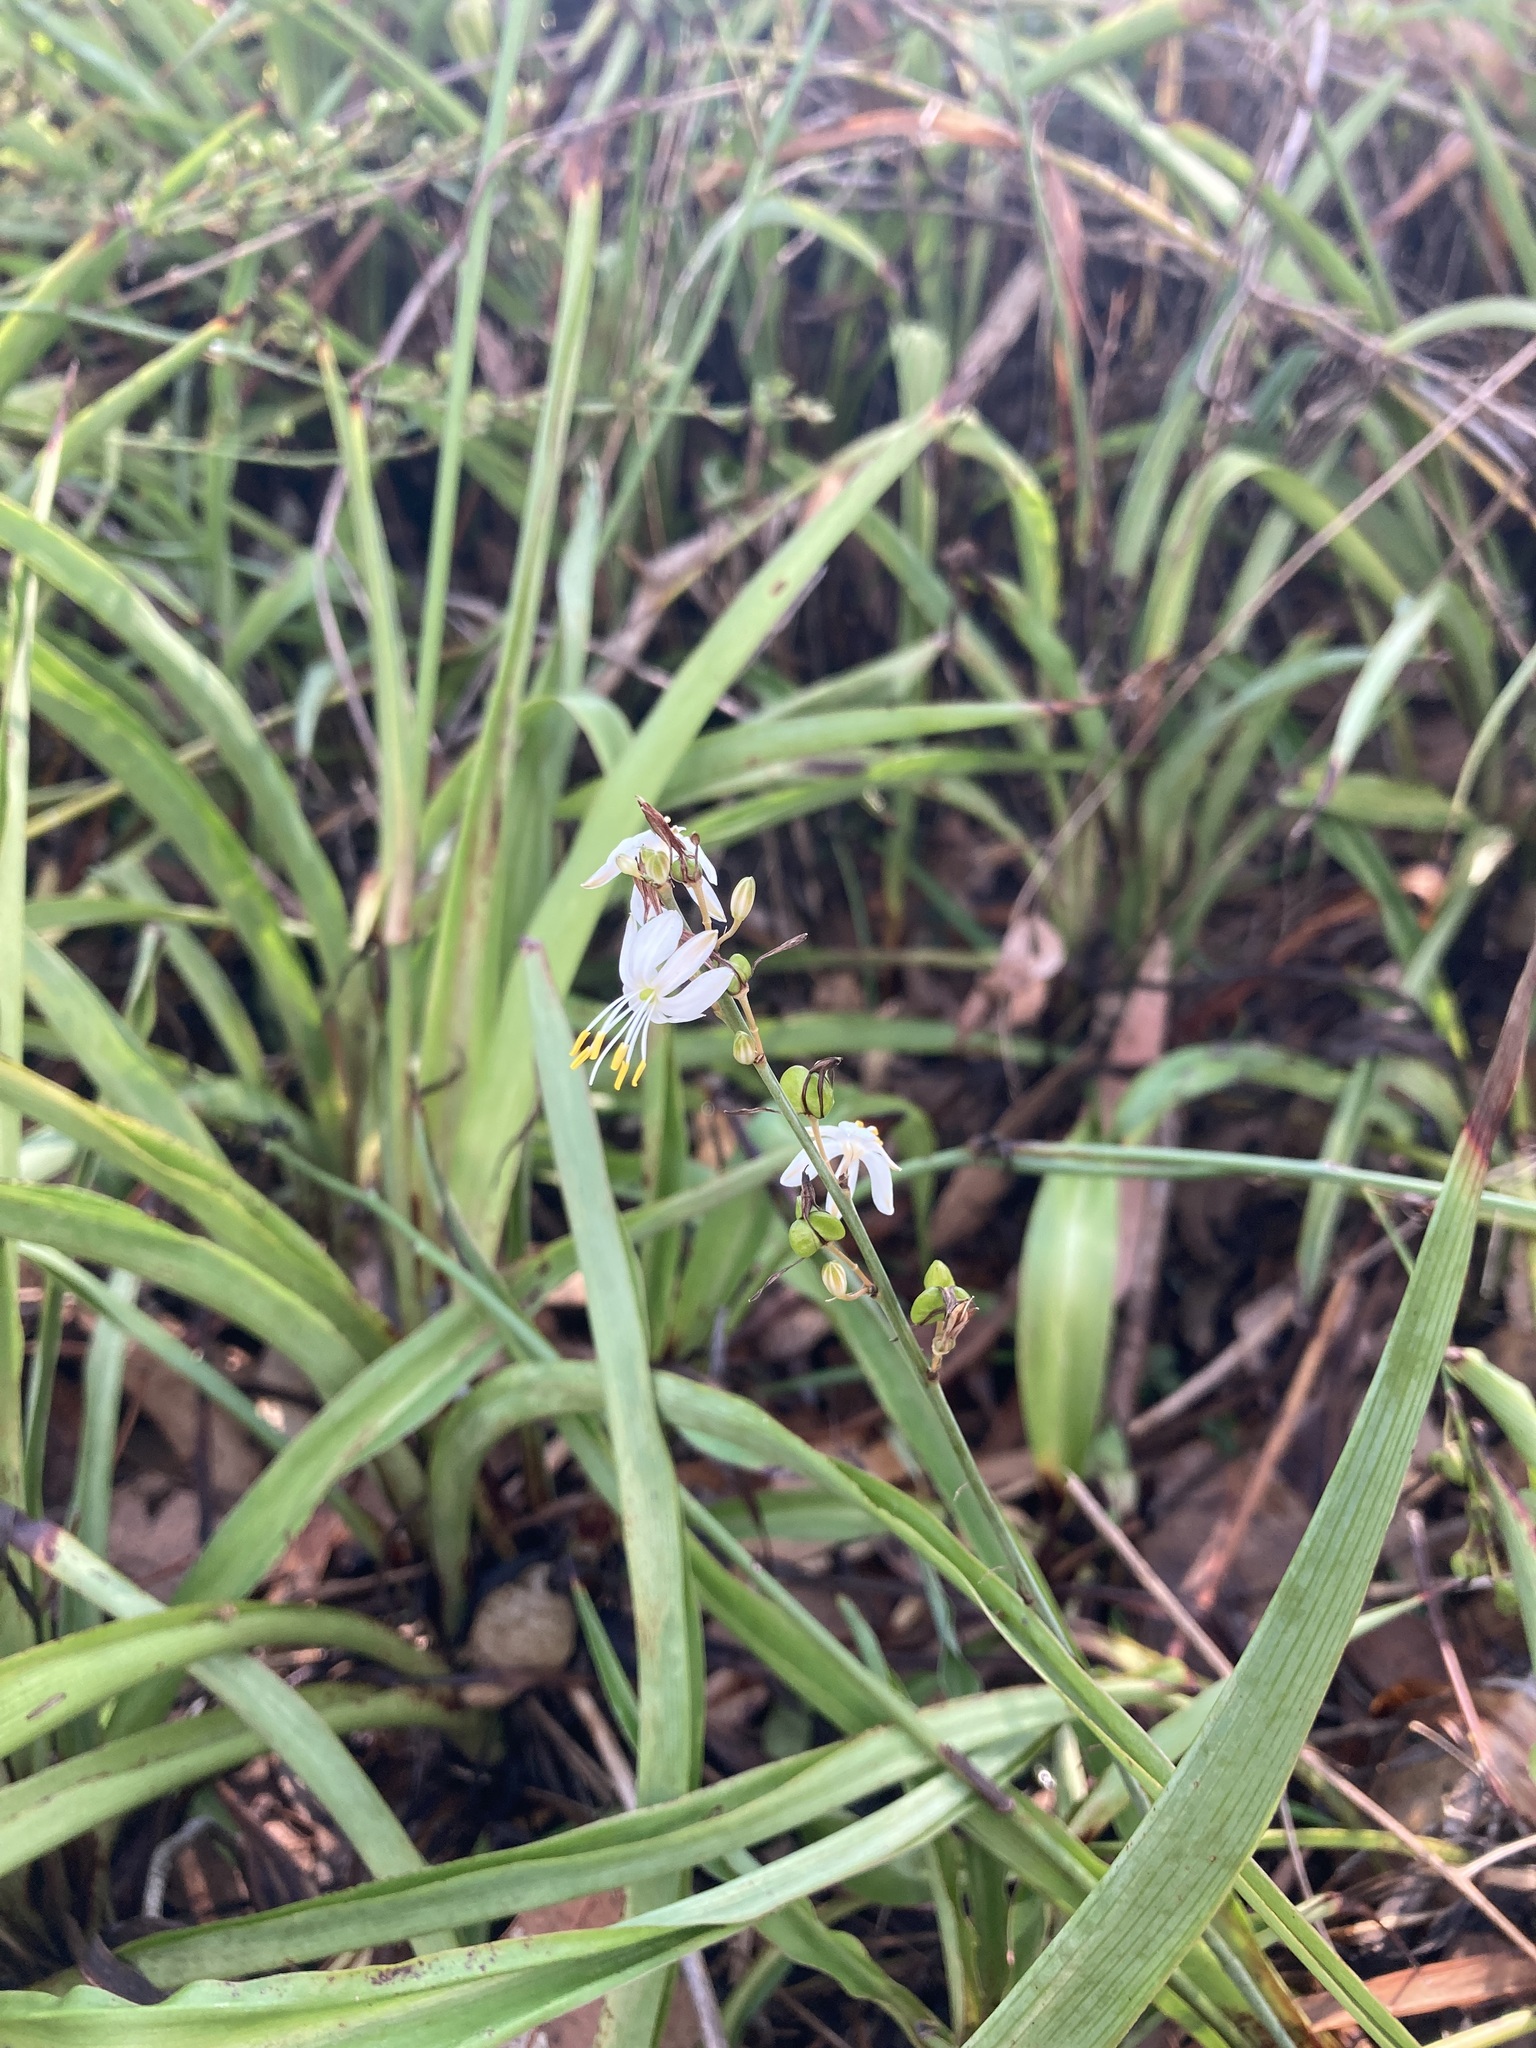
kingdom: Plantae
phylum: Tracheophyta
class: Liliopsida
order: Asparagales
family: Asparagaceae
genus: Chlorophytum
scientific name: Chlorophytum comosum
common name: Spider plant
